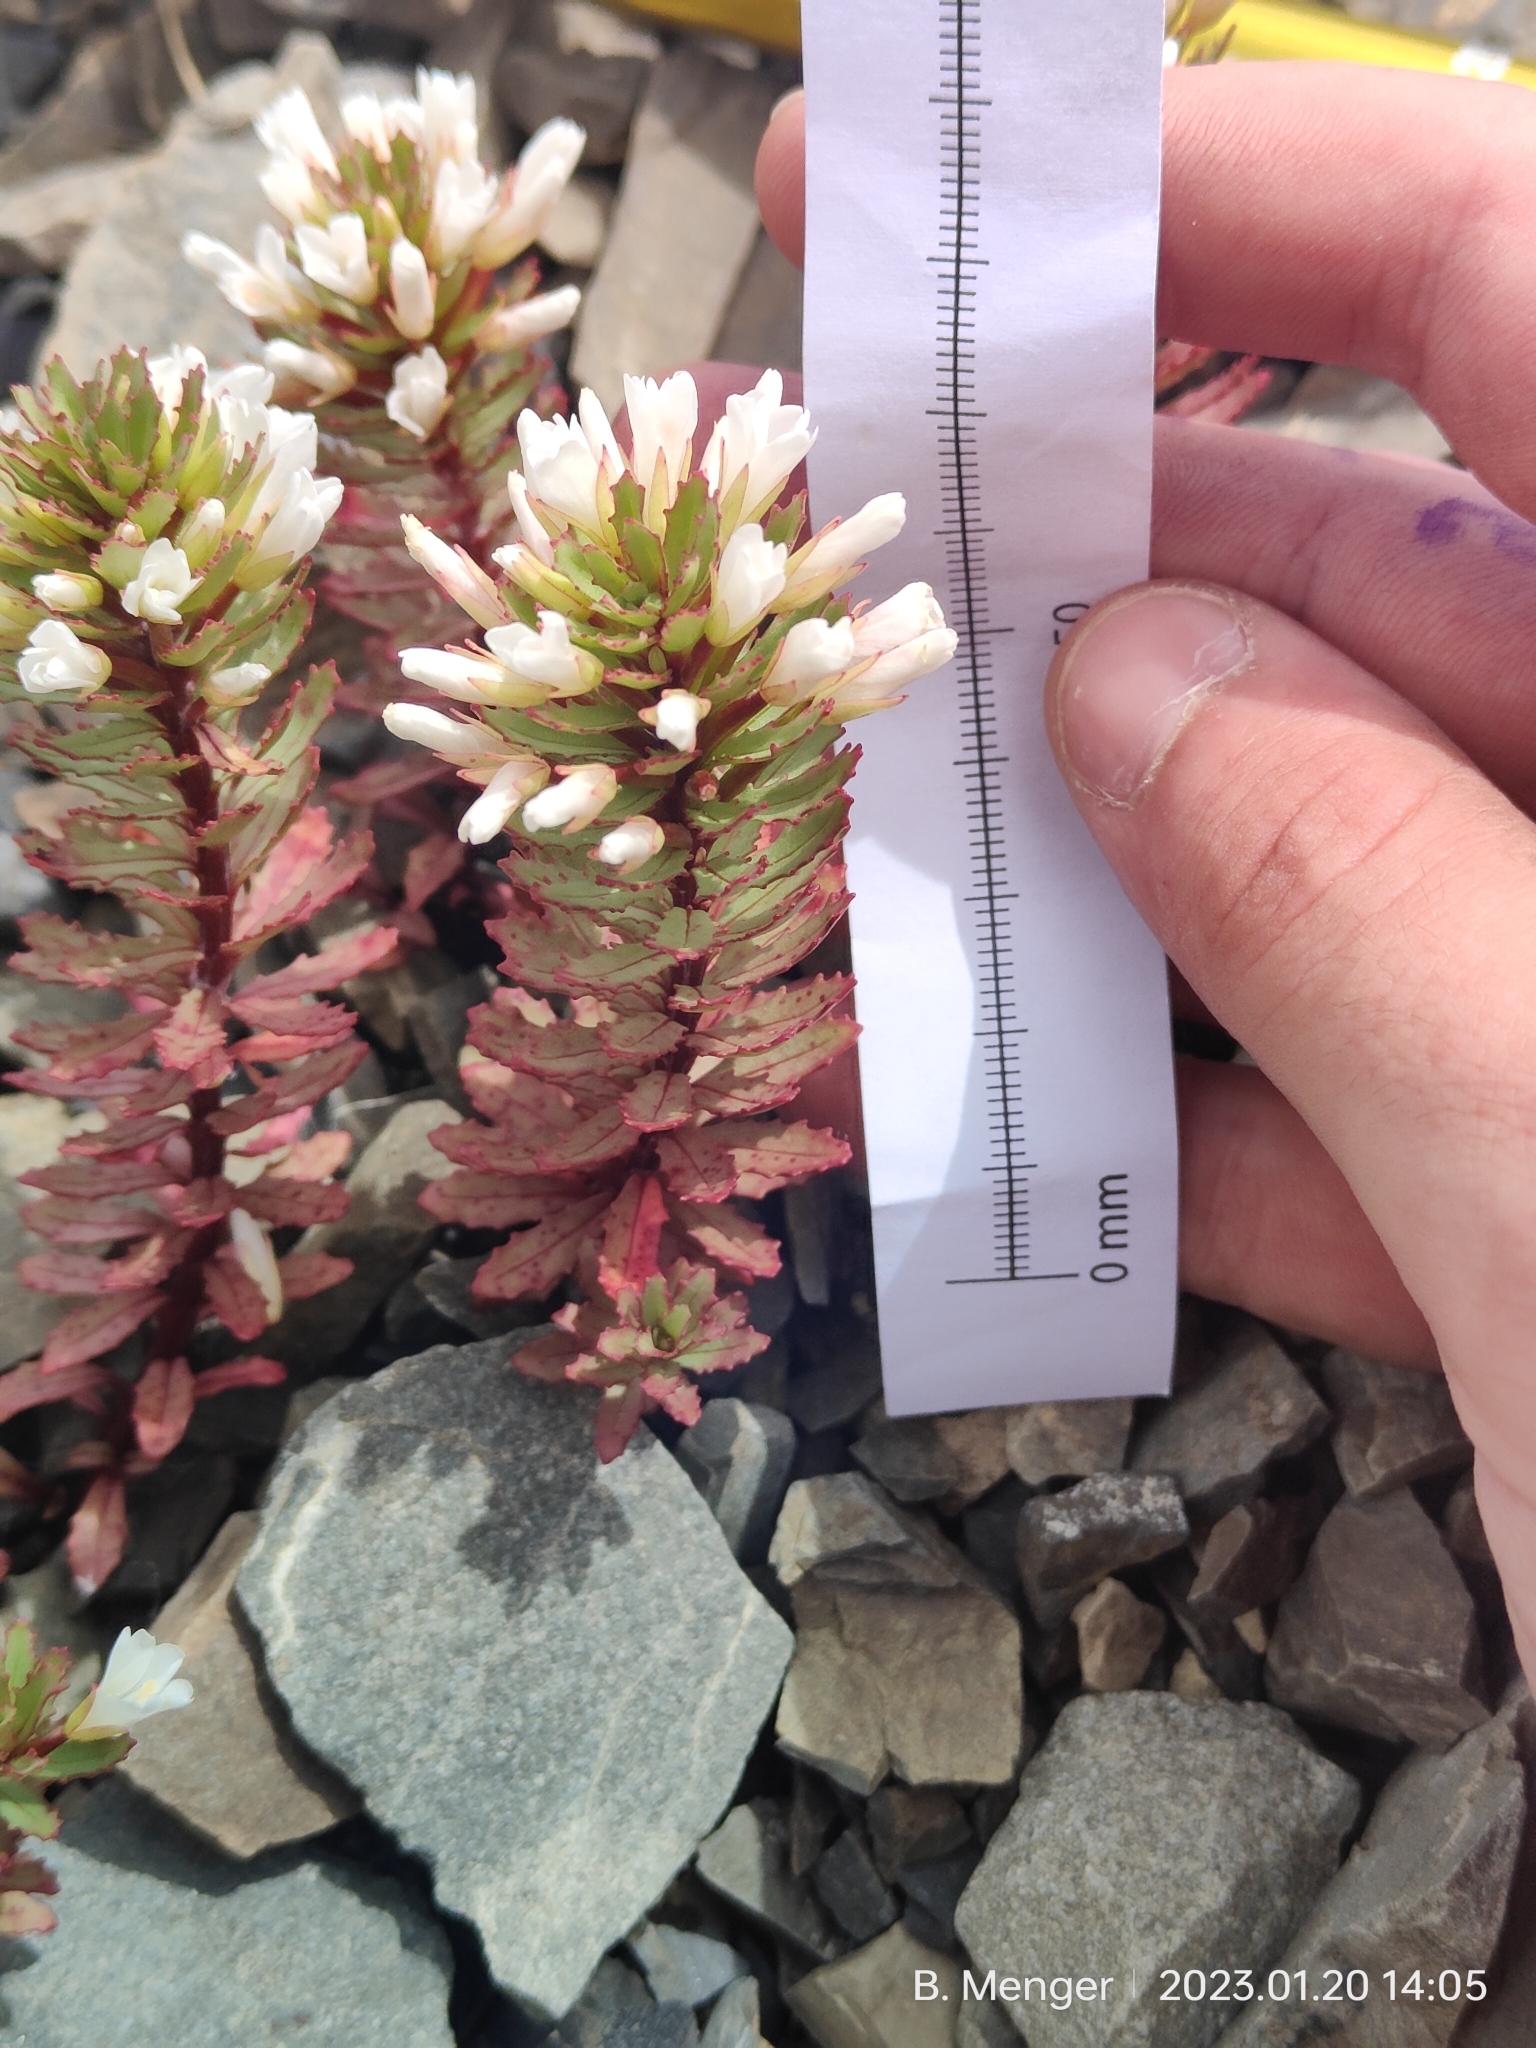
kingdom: Plantae
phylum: Tracheophyta
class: Magnoliopsida
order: Myrtales
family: Onagraceae
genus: Epilobium
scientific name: Epilobium pycnostachyum
